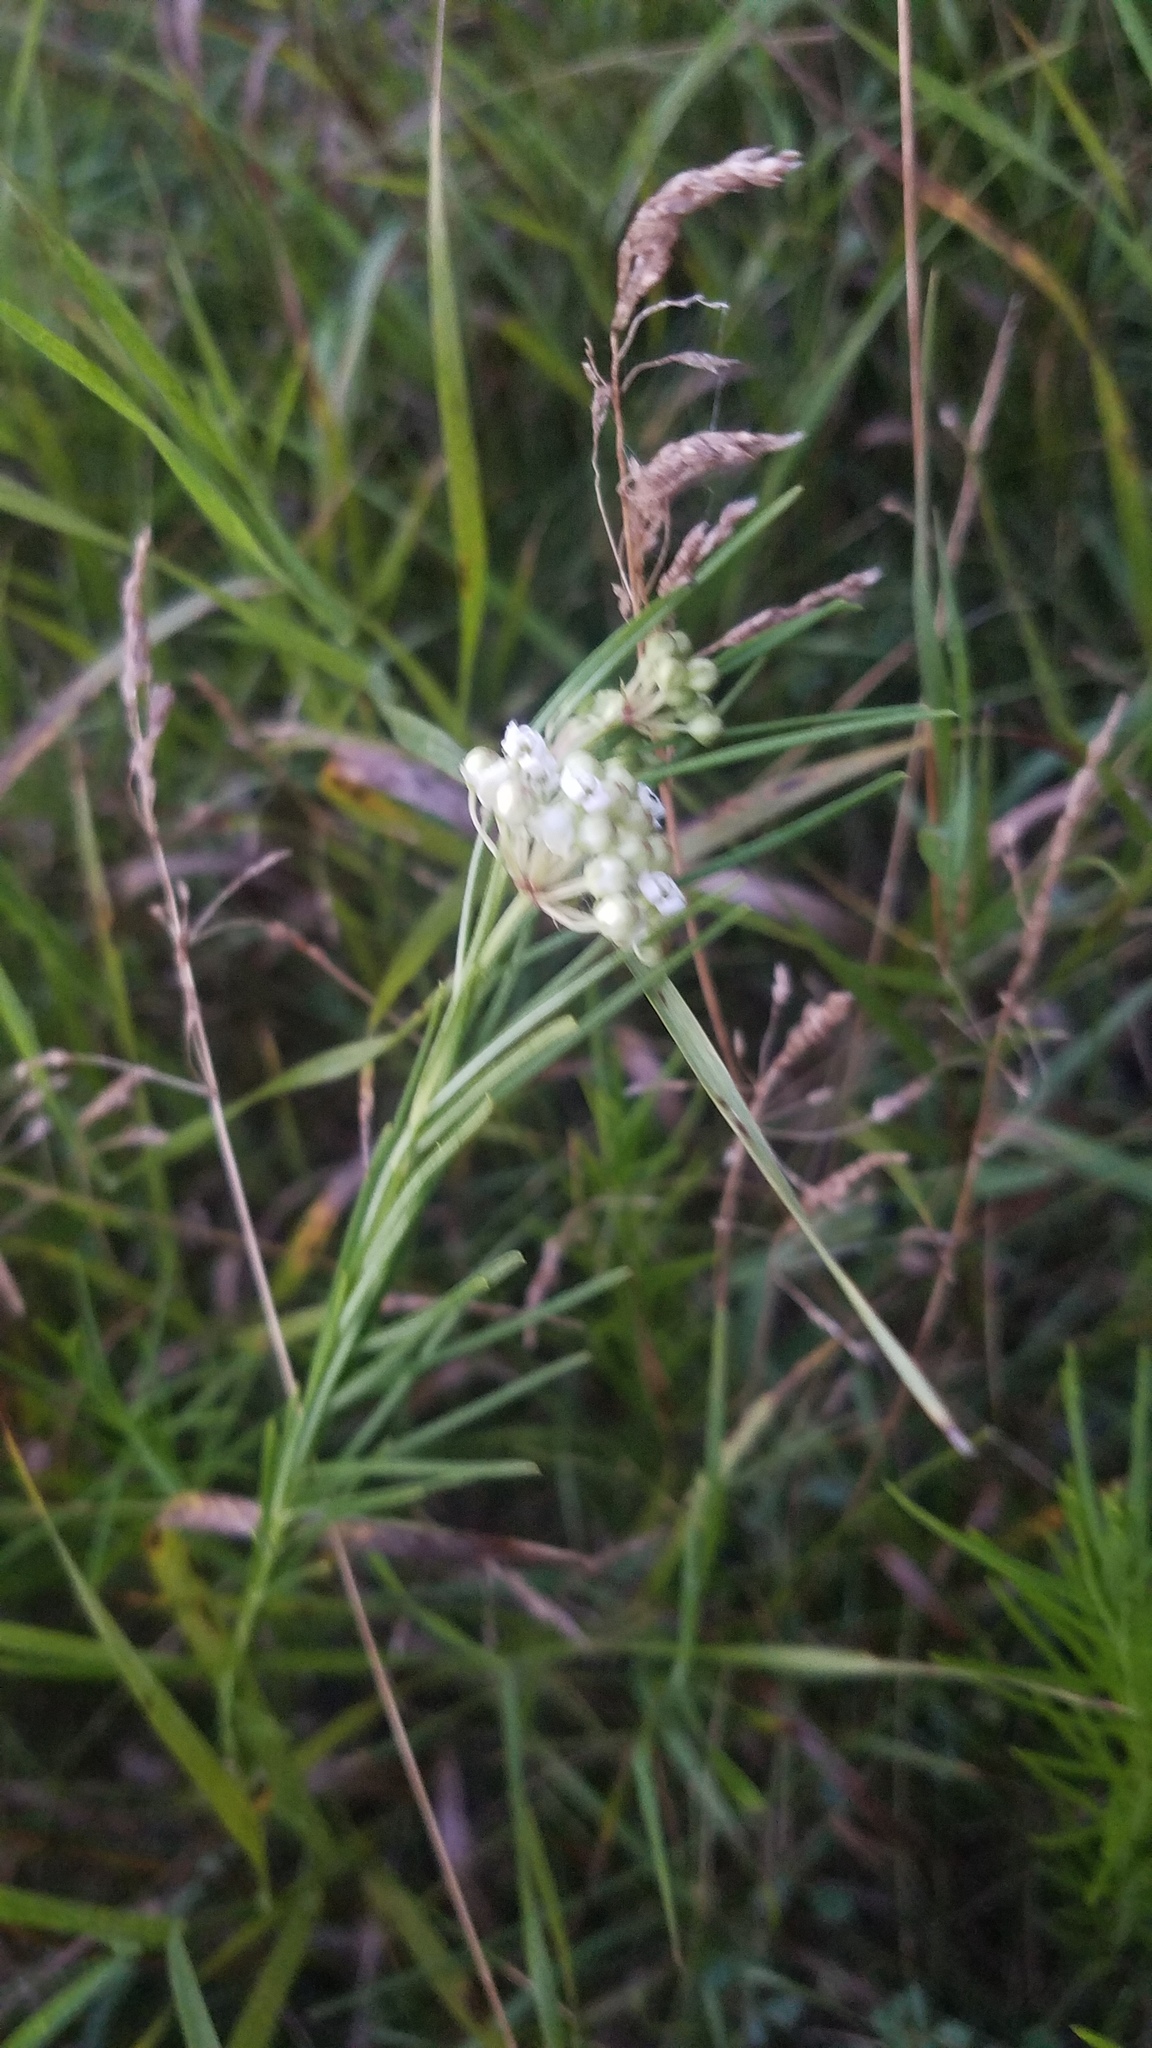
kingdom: Plantae
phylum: Tracheophyta
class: Magnoliopsida
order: Gentianales
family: Apocynaceae
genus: Asclepias
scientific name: Asclepias verticillata
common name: Eastern whorled milkweed
